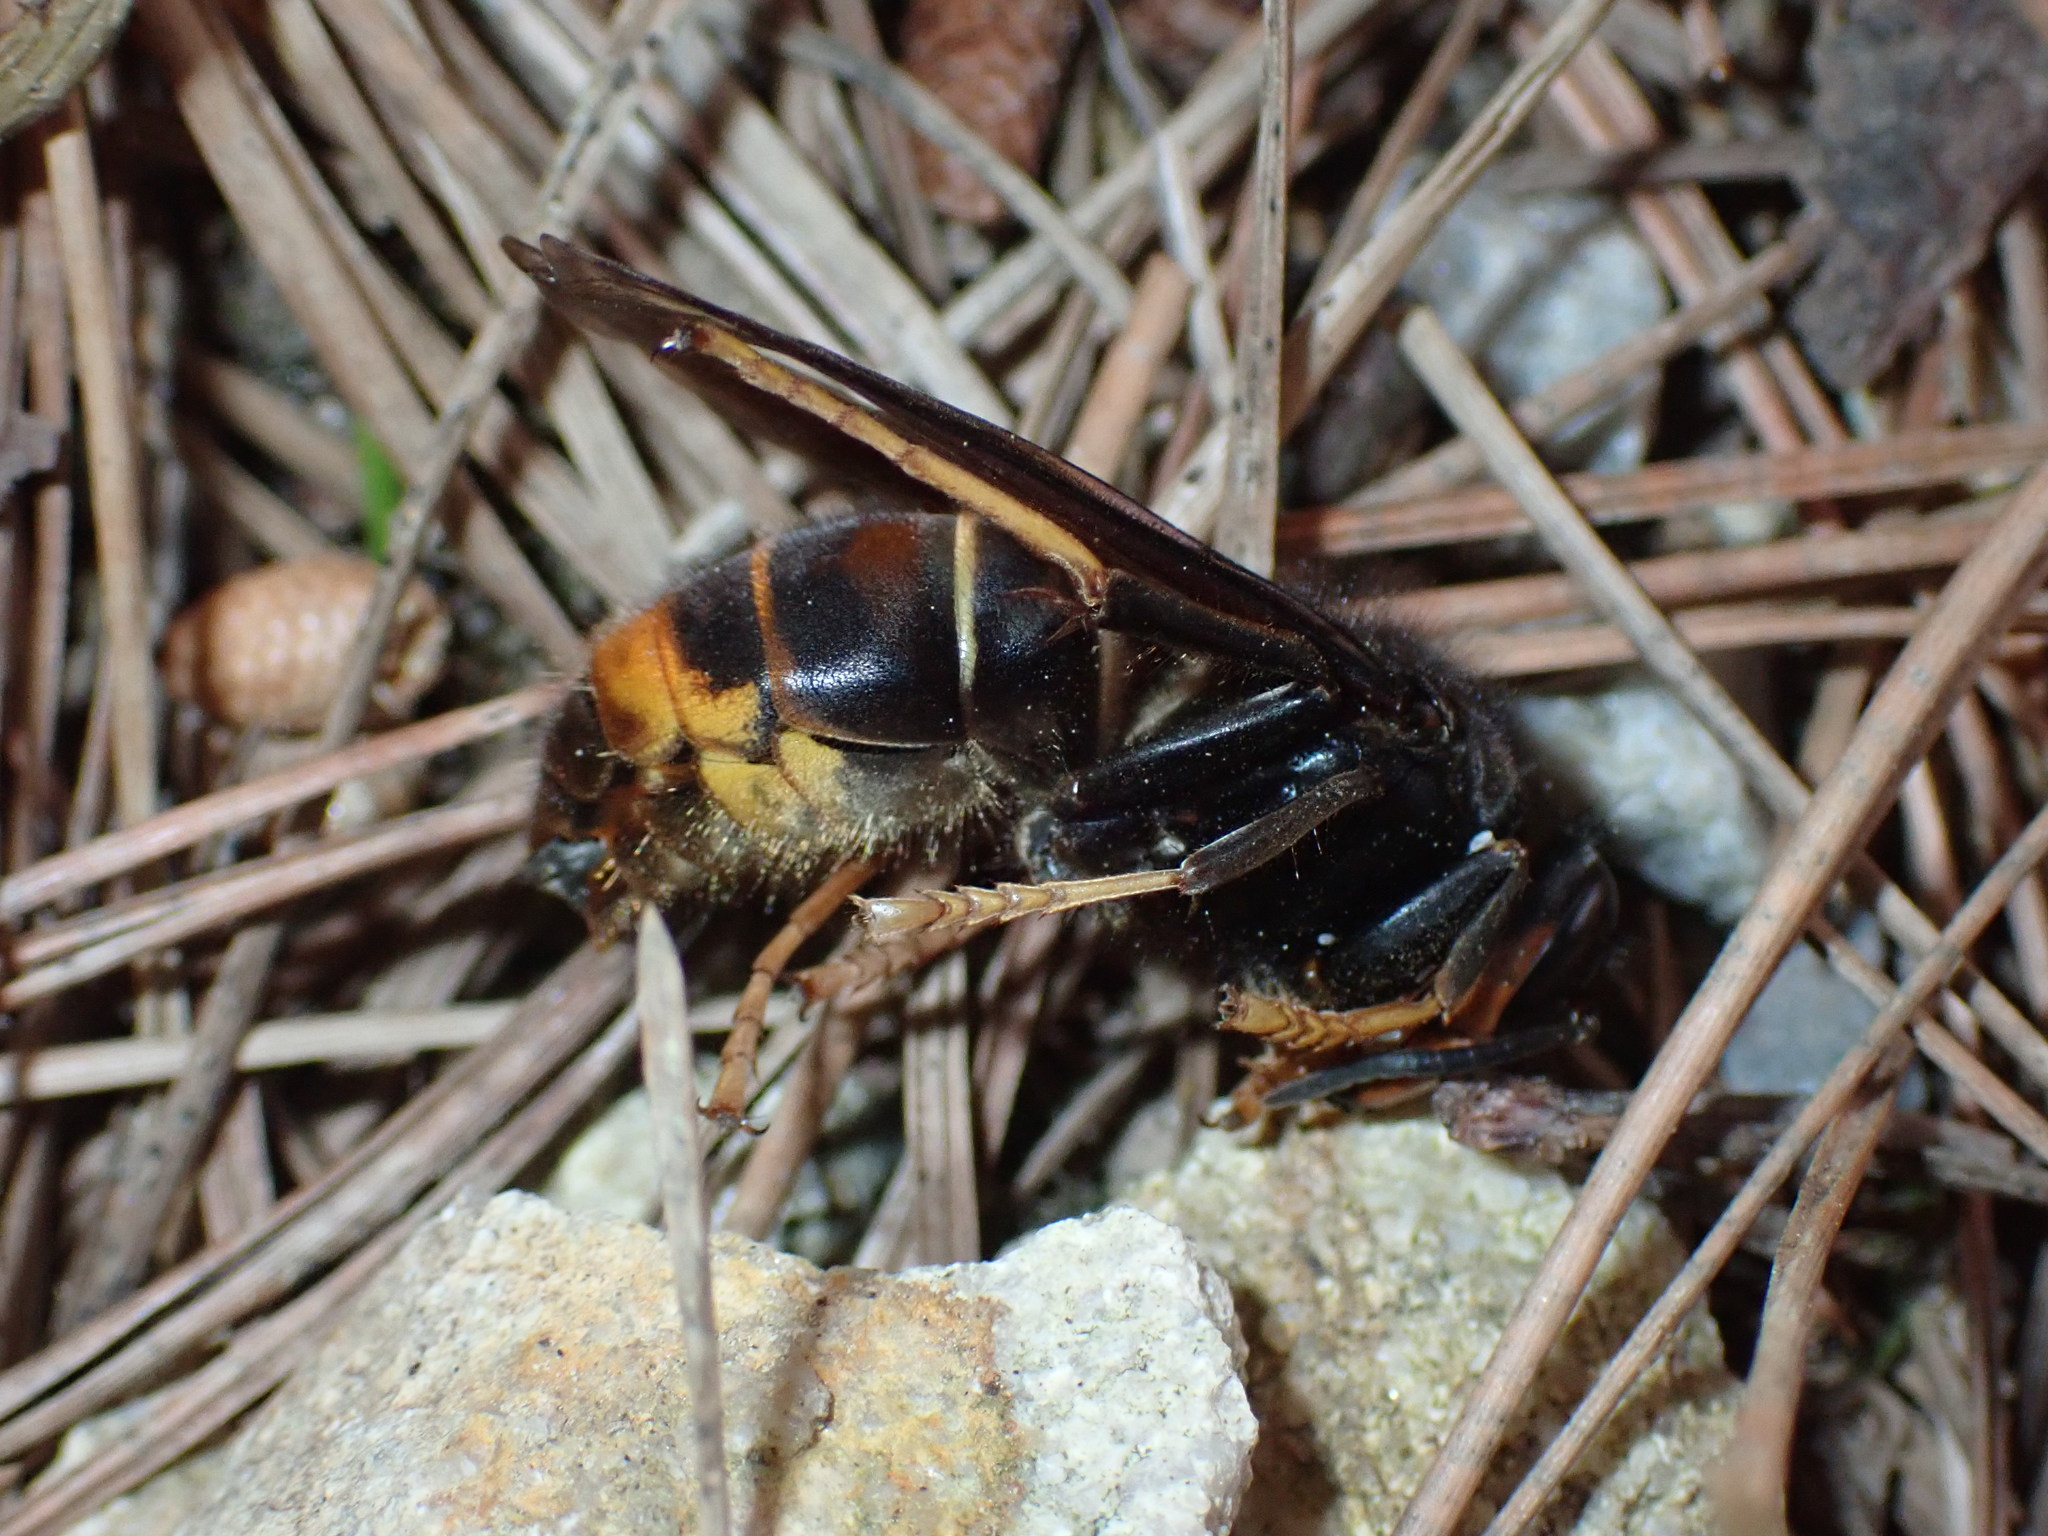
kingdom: Animalia
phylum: Arthropoda
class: Insecta
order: Hymenoptera
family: Vespidae
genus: Vespa
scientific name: Vespa velutina
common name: Asian hornet
